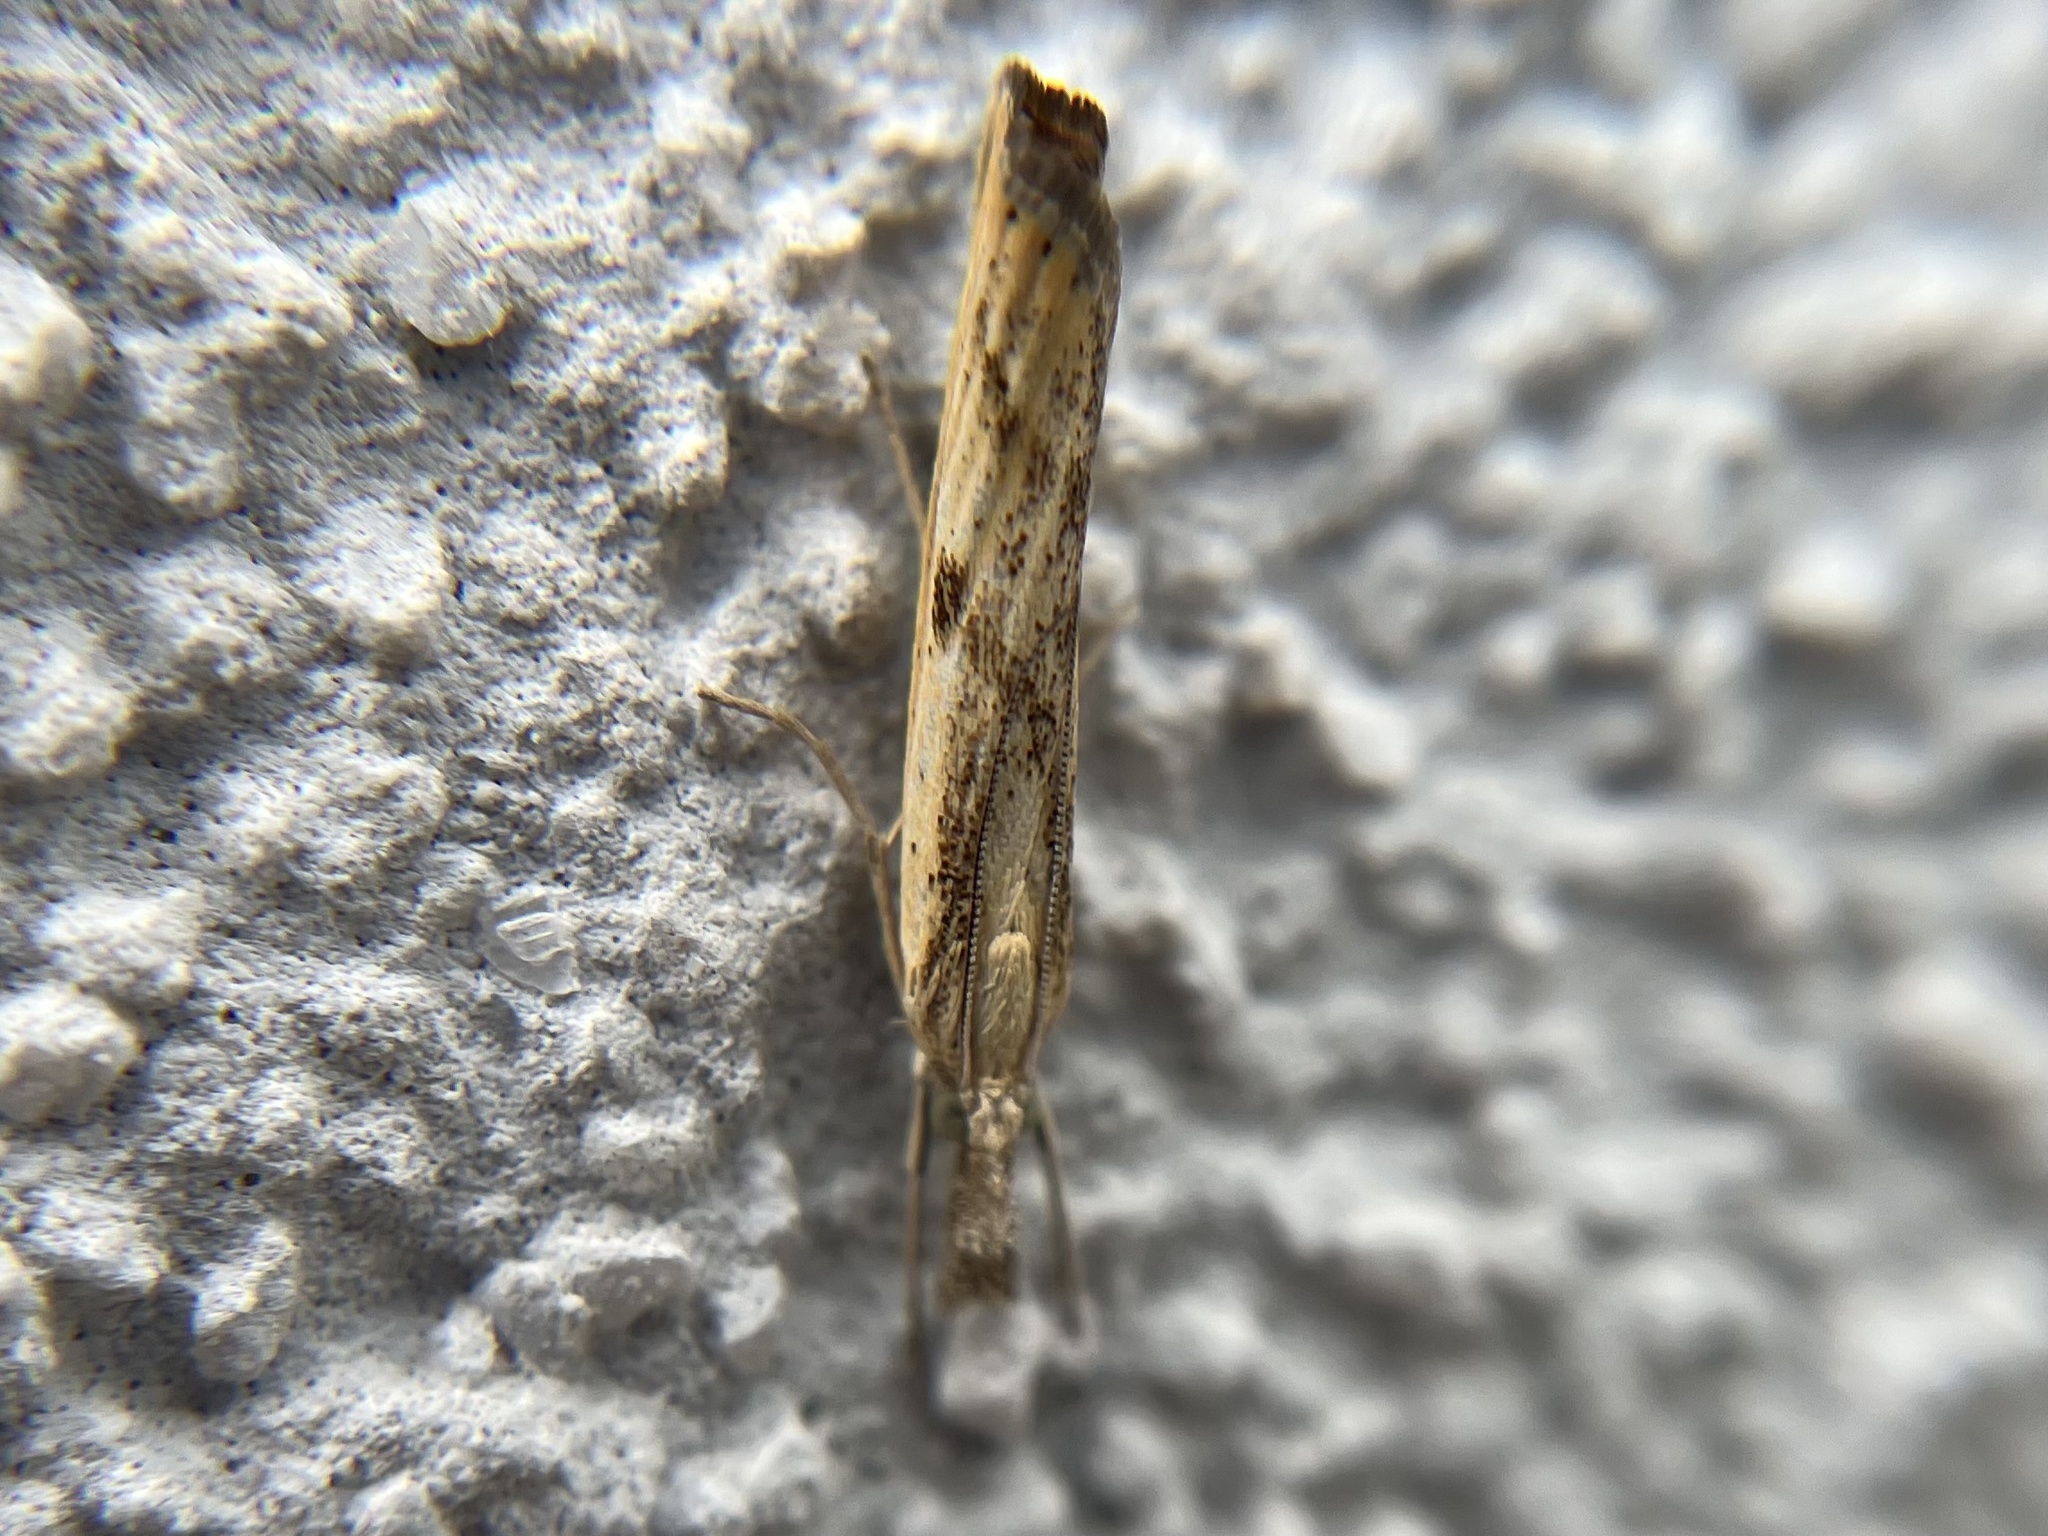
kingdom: Animalia
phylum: Arthropoda
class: Insecta
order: Lepidoptera
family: Crambidae
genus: Agriphila
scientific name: Agriphila inquinatella
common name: Barred grass-veneer
